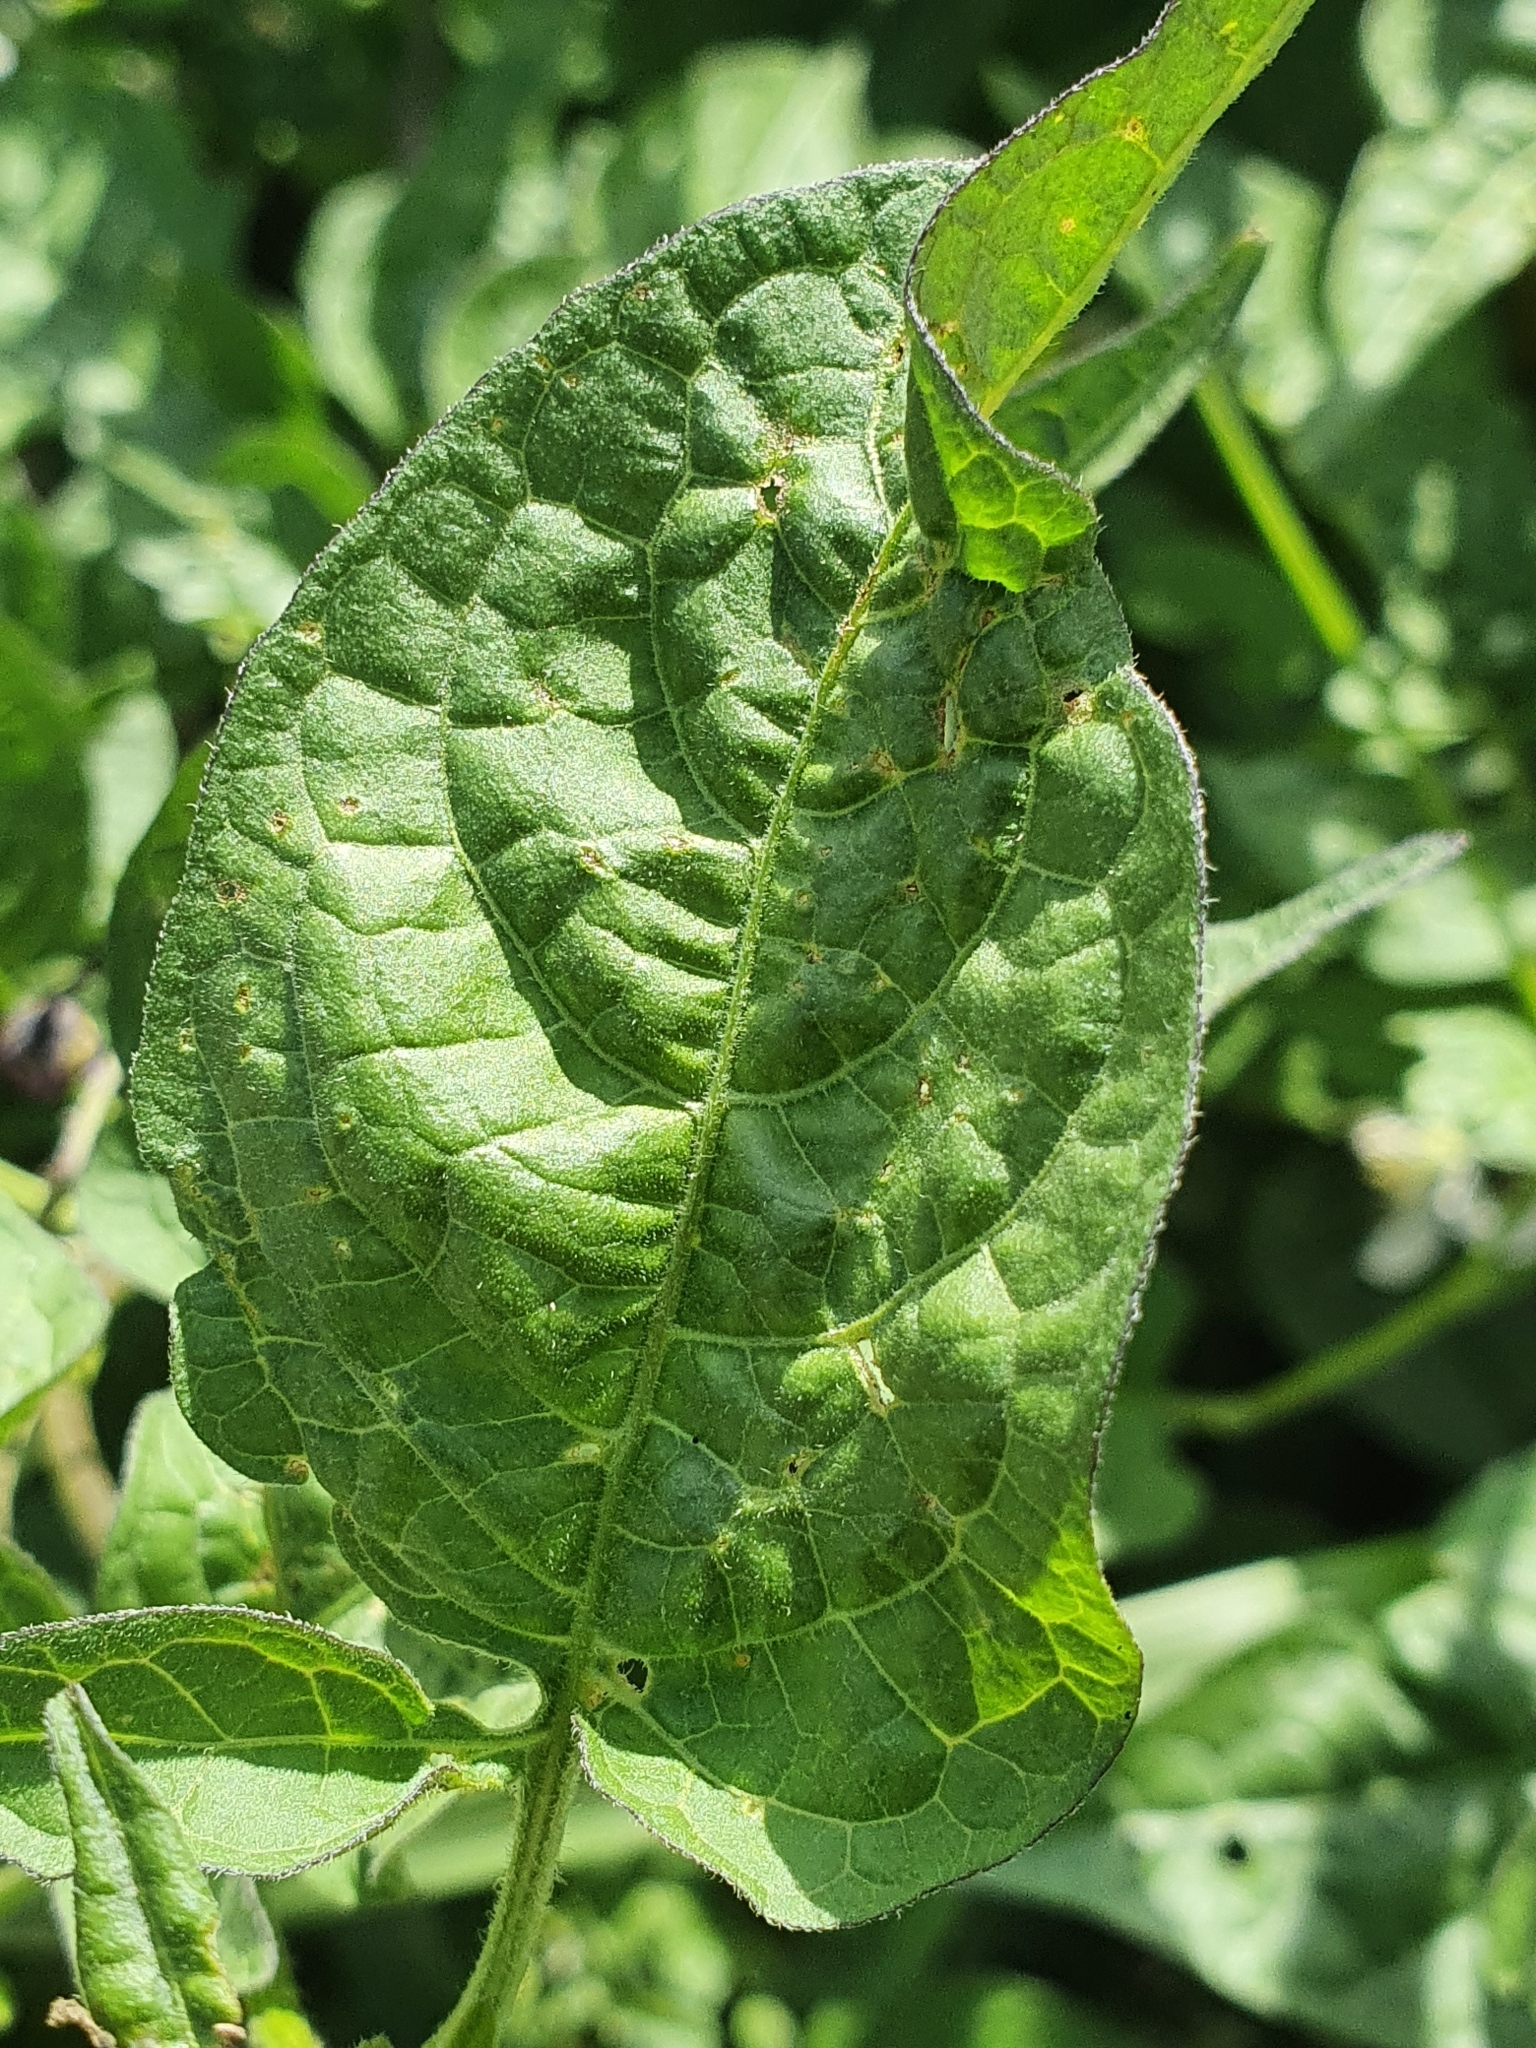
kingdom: Plantae
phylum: Tracheophyta
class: Magnoliopsida
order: Solanales
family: Solanaceae
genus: Solanum
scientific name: Solanum dulcamara
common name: Climbing nightshade
